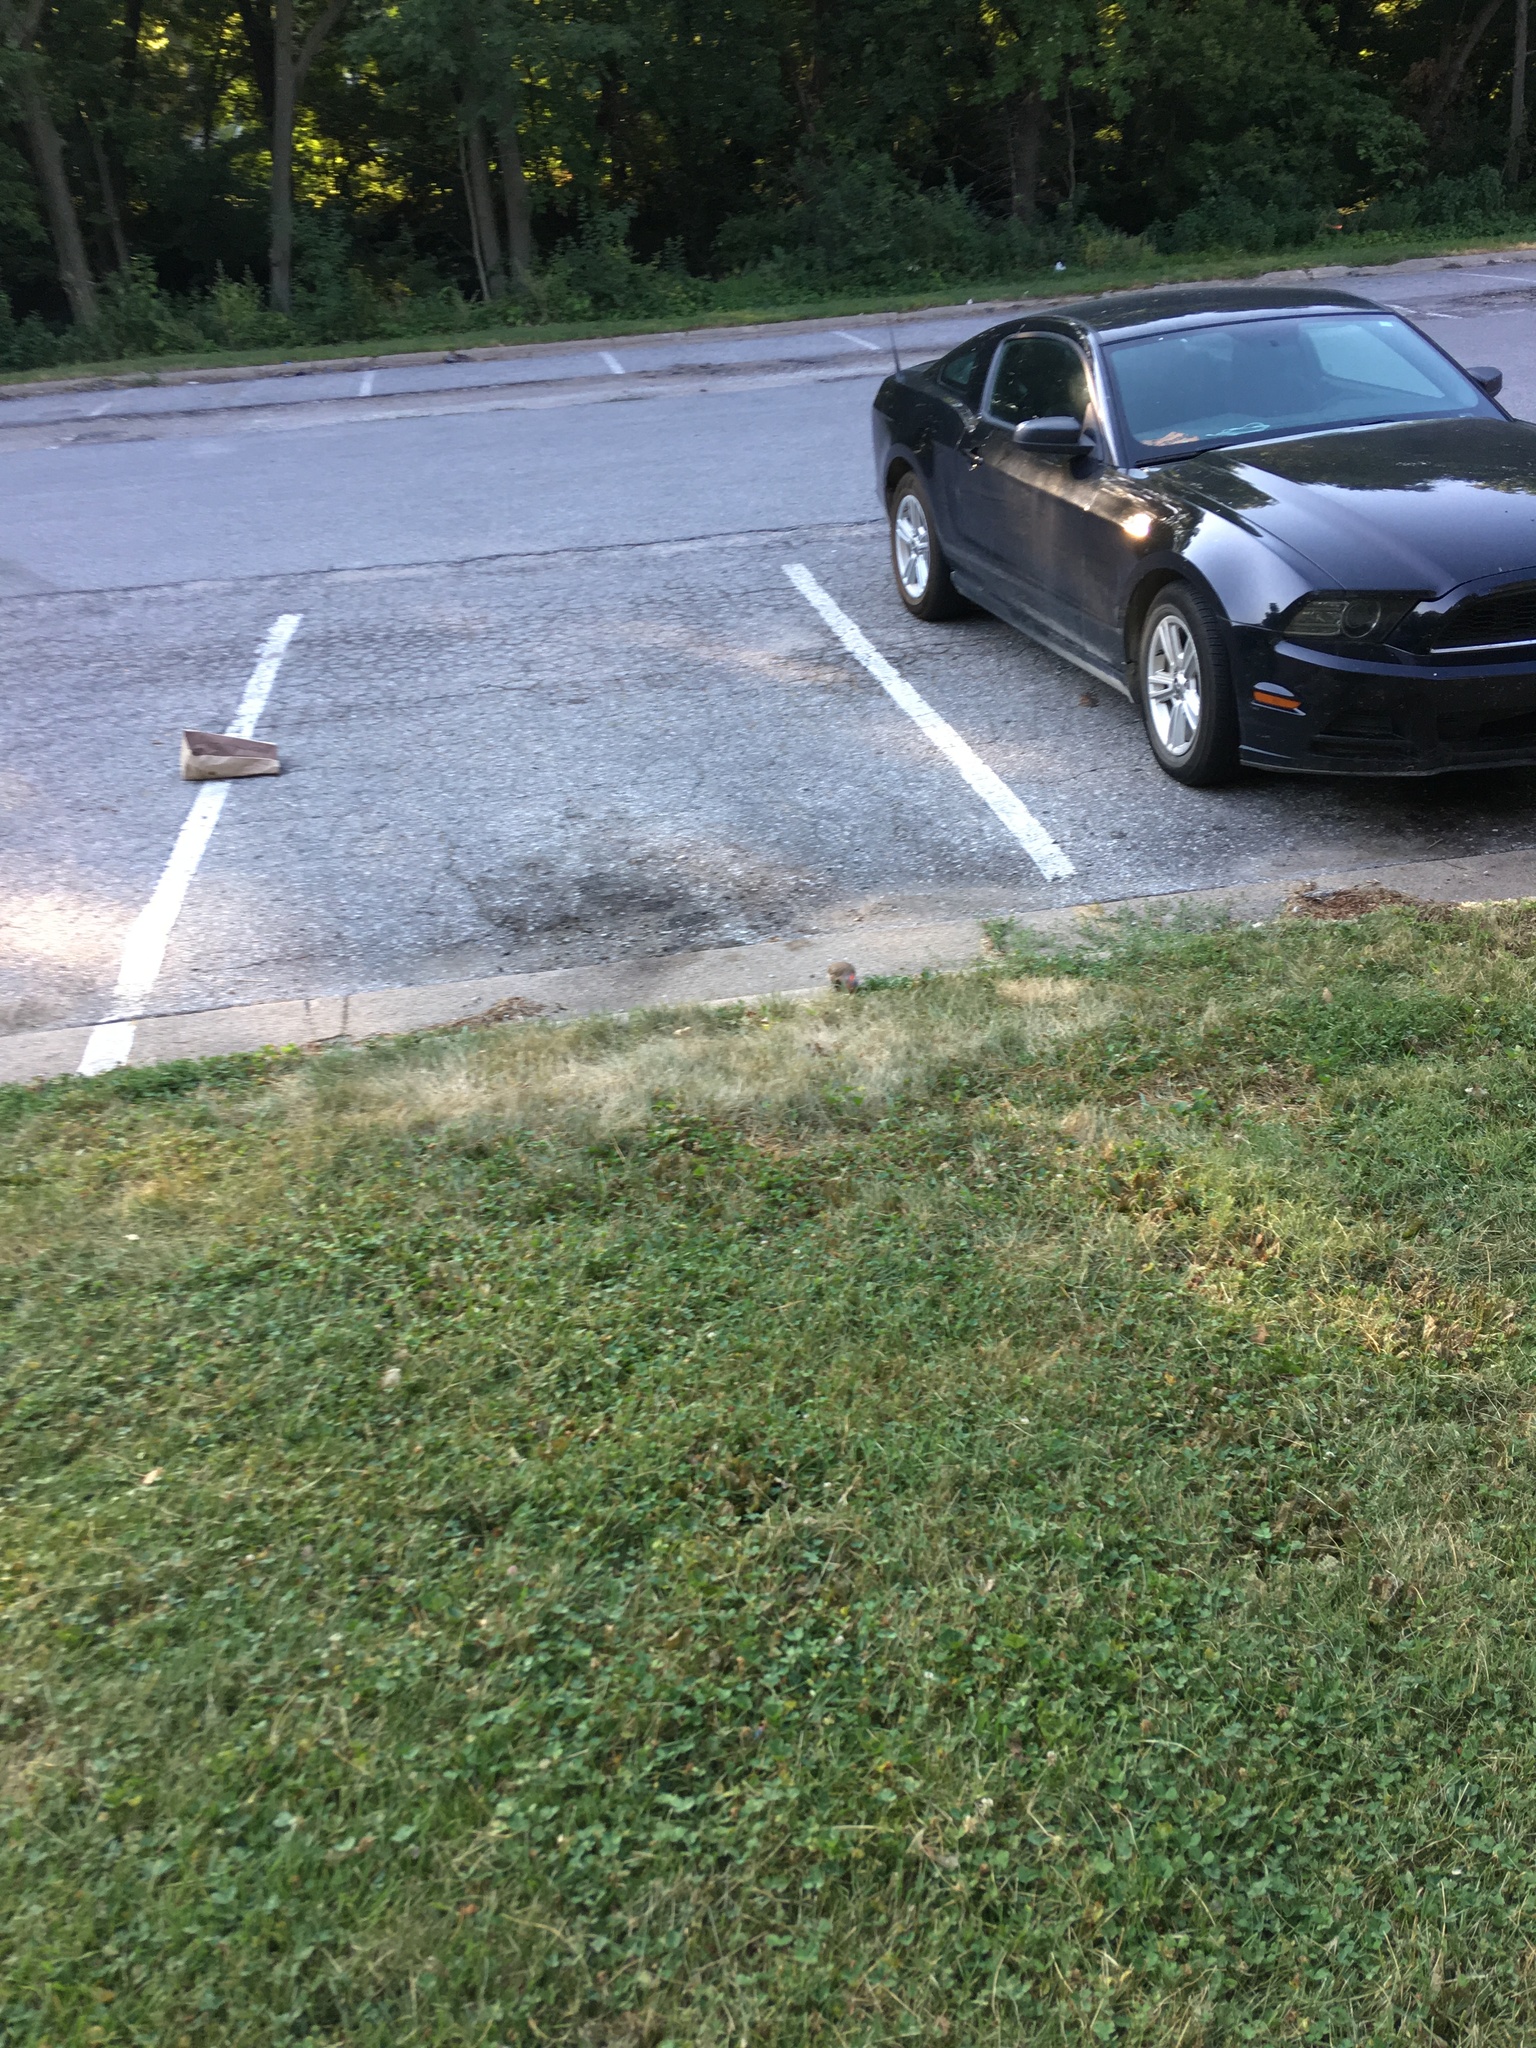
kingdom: Animalia
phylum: Chordata
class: Aves
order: Piciformes
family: Picidae
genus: Colaptes
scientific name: Colaptes auratus
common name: Northern flicker
